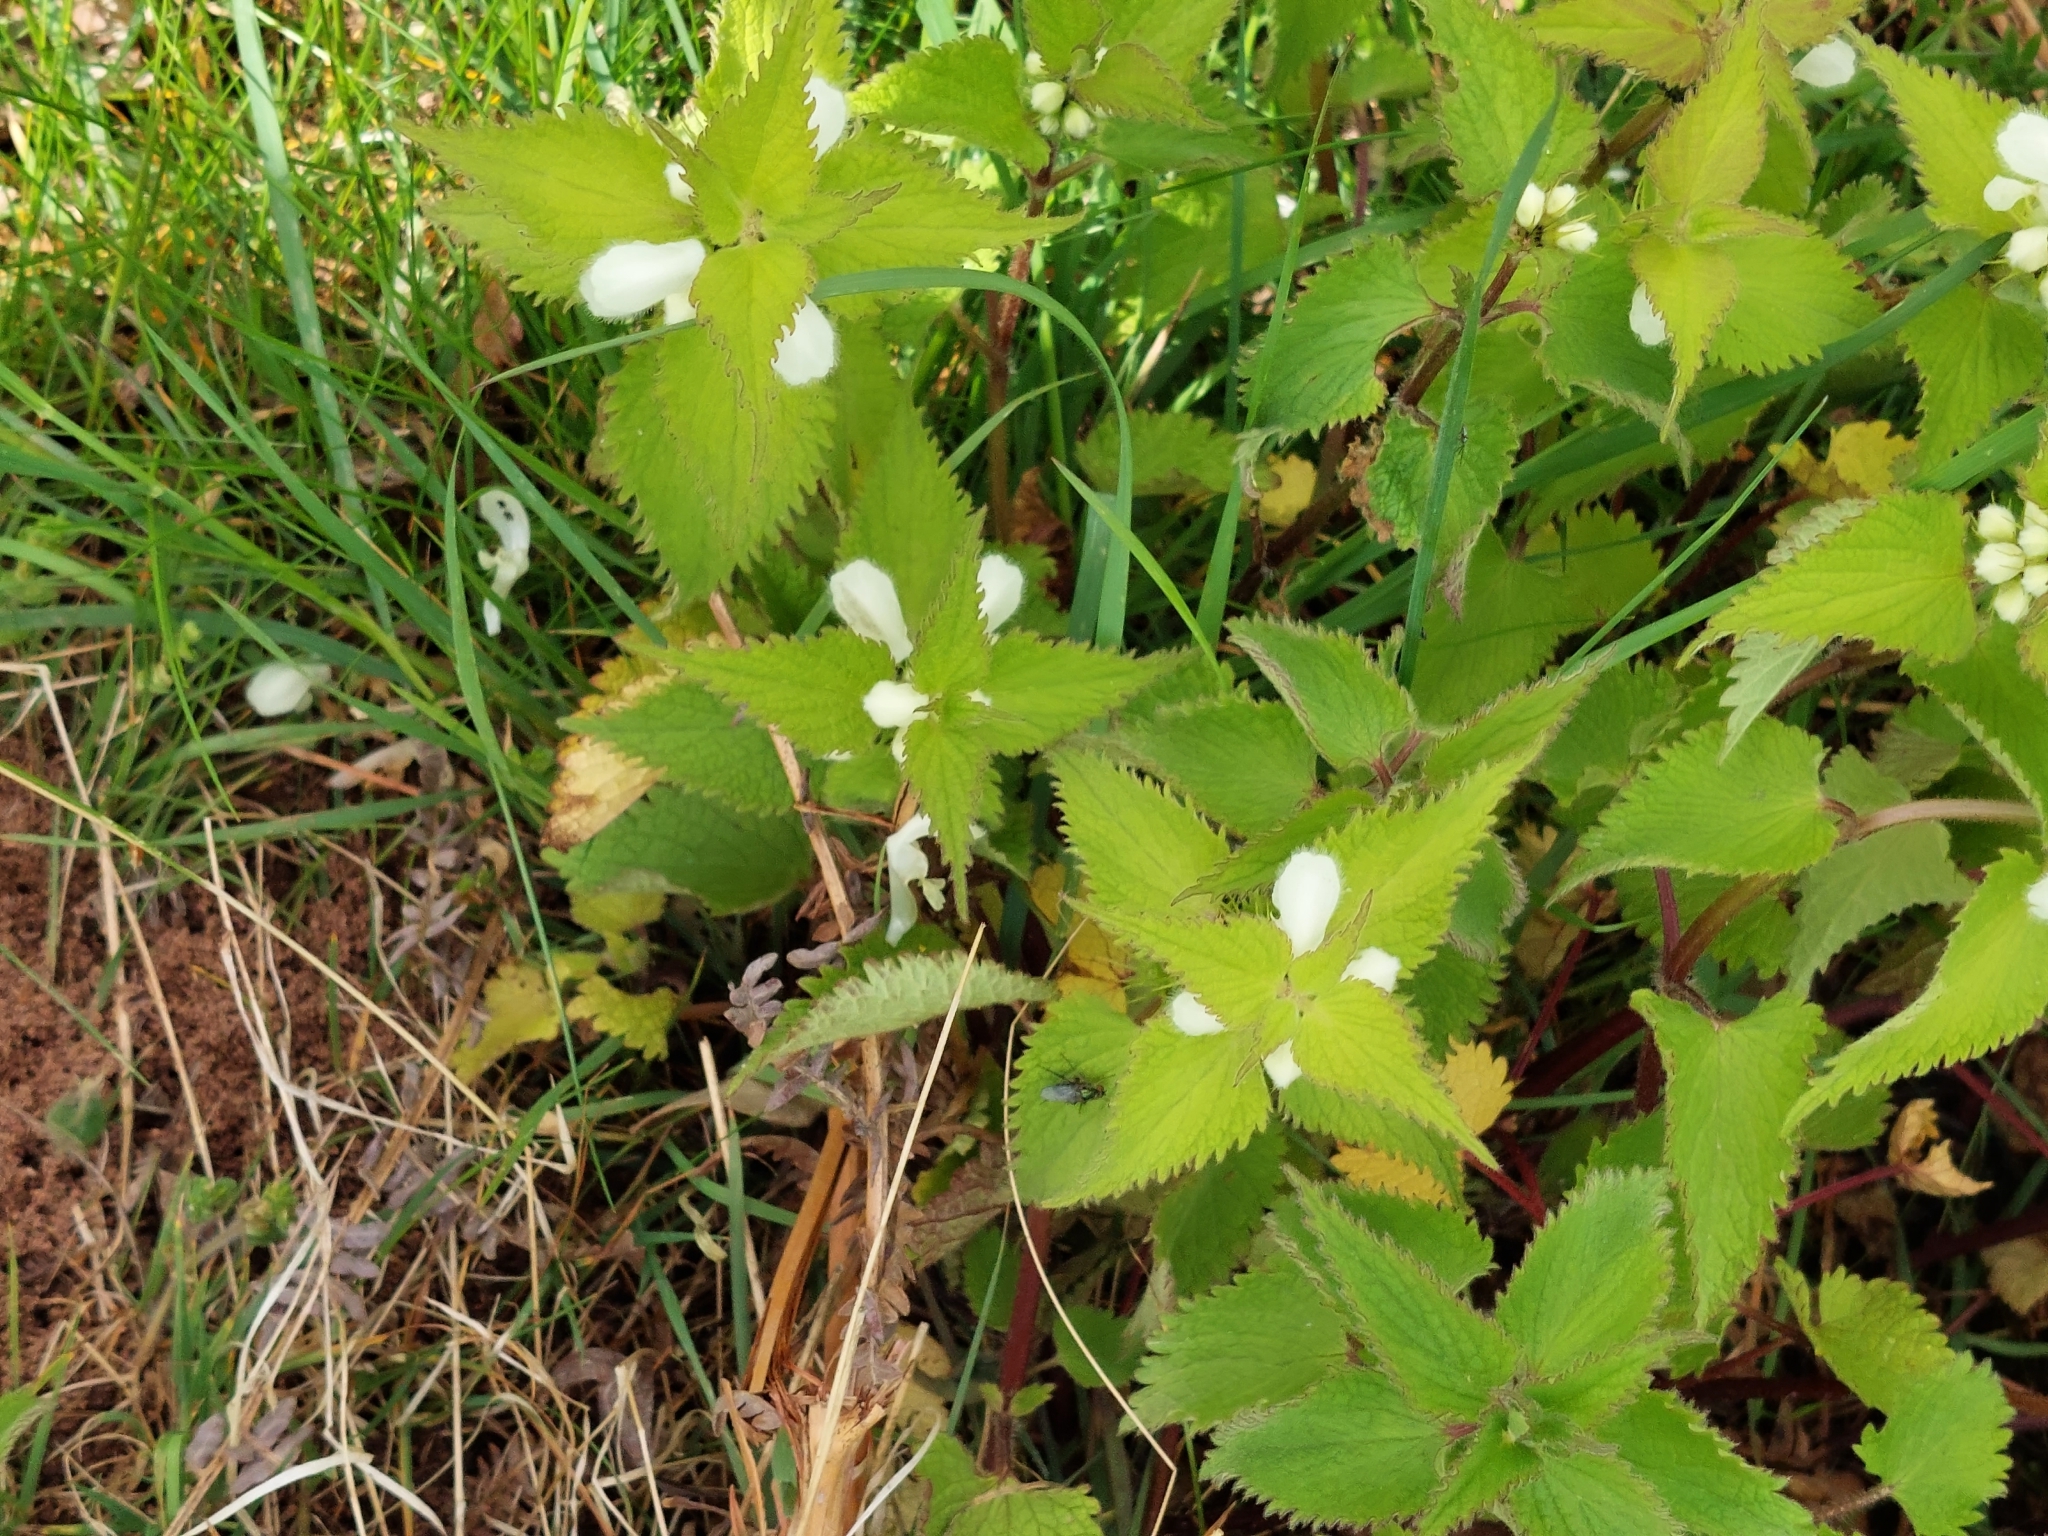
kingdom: Plantae
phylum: Tracheophyta
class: Magnoliopsida
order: Lamiales
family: Lamiaceae
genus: Lamium
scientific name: Lamium album
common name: White dead-nettle
